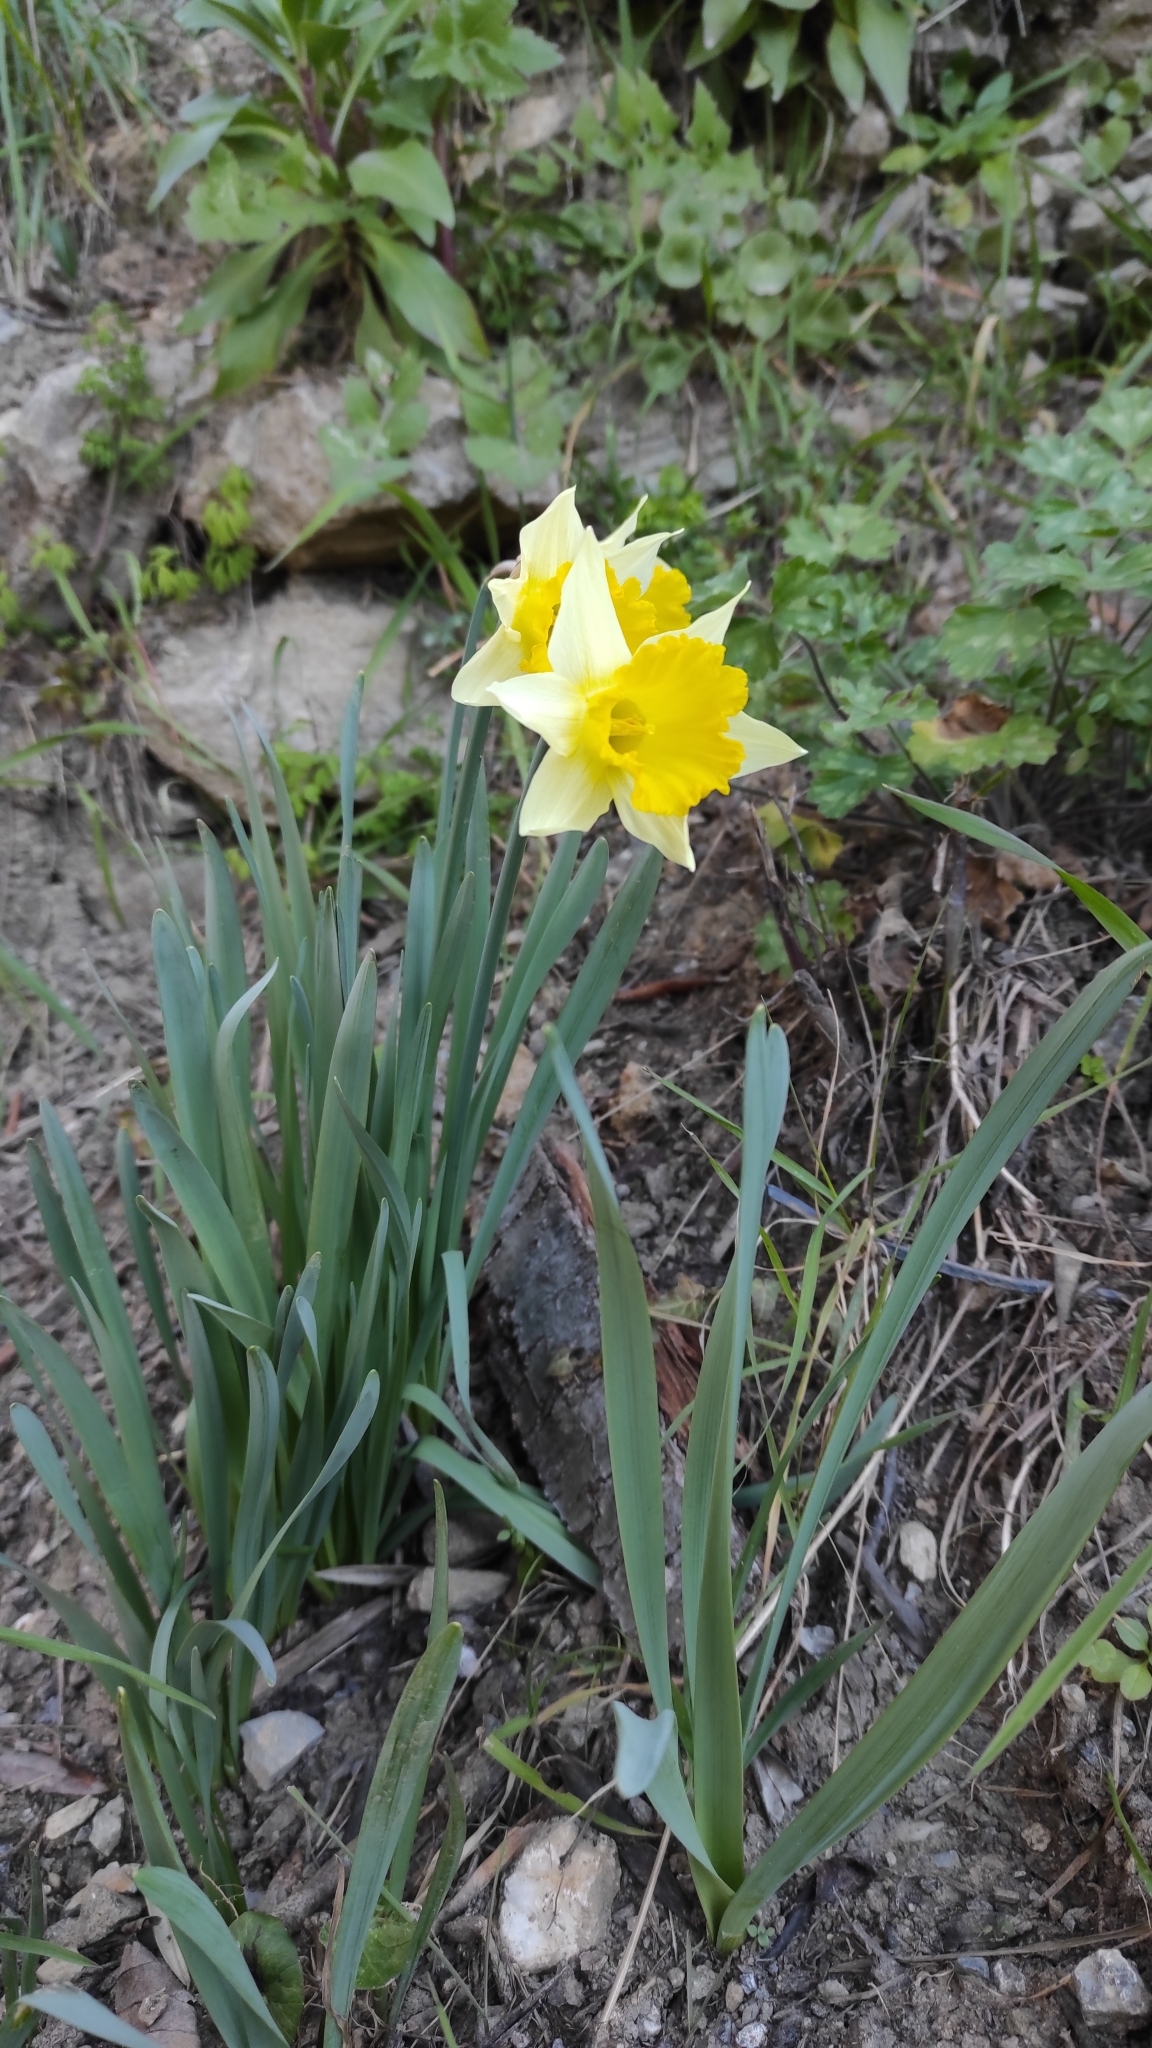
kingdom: Plantae
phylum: Tracheophyta
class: Liliopsida
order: Asparagales
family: Amaryllidaceae
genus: Narcissus
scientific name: Narcissus pseudonarcissus
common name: Daffodil
